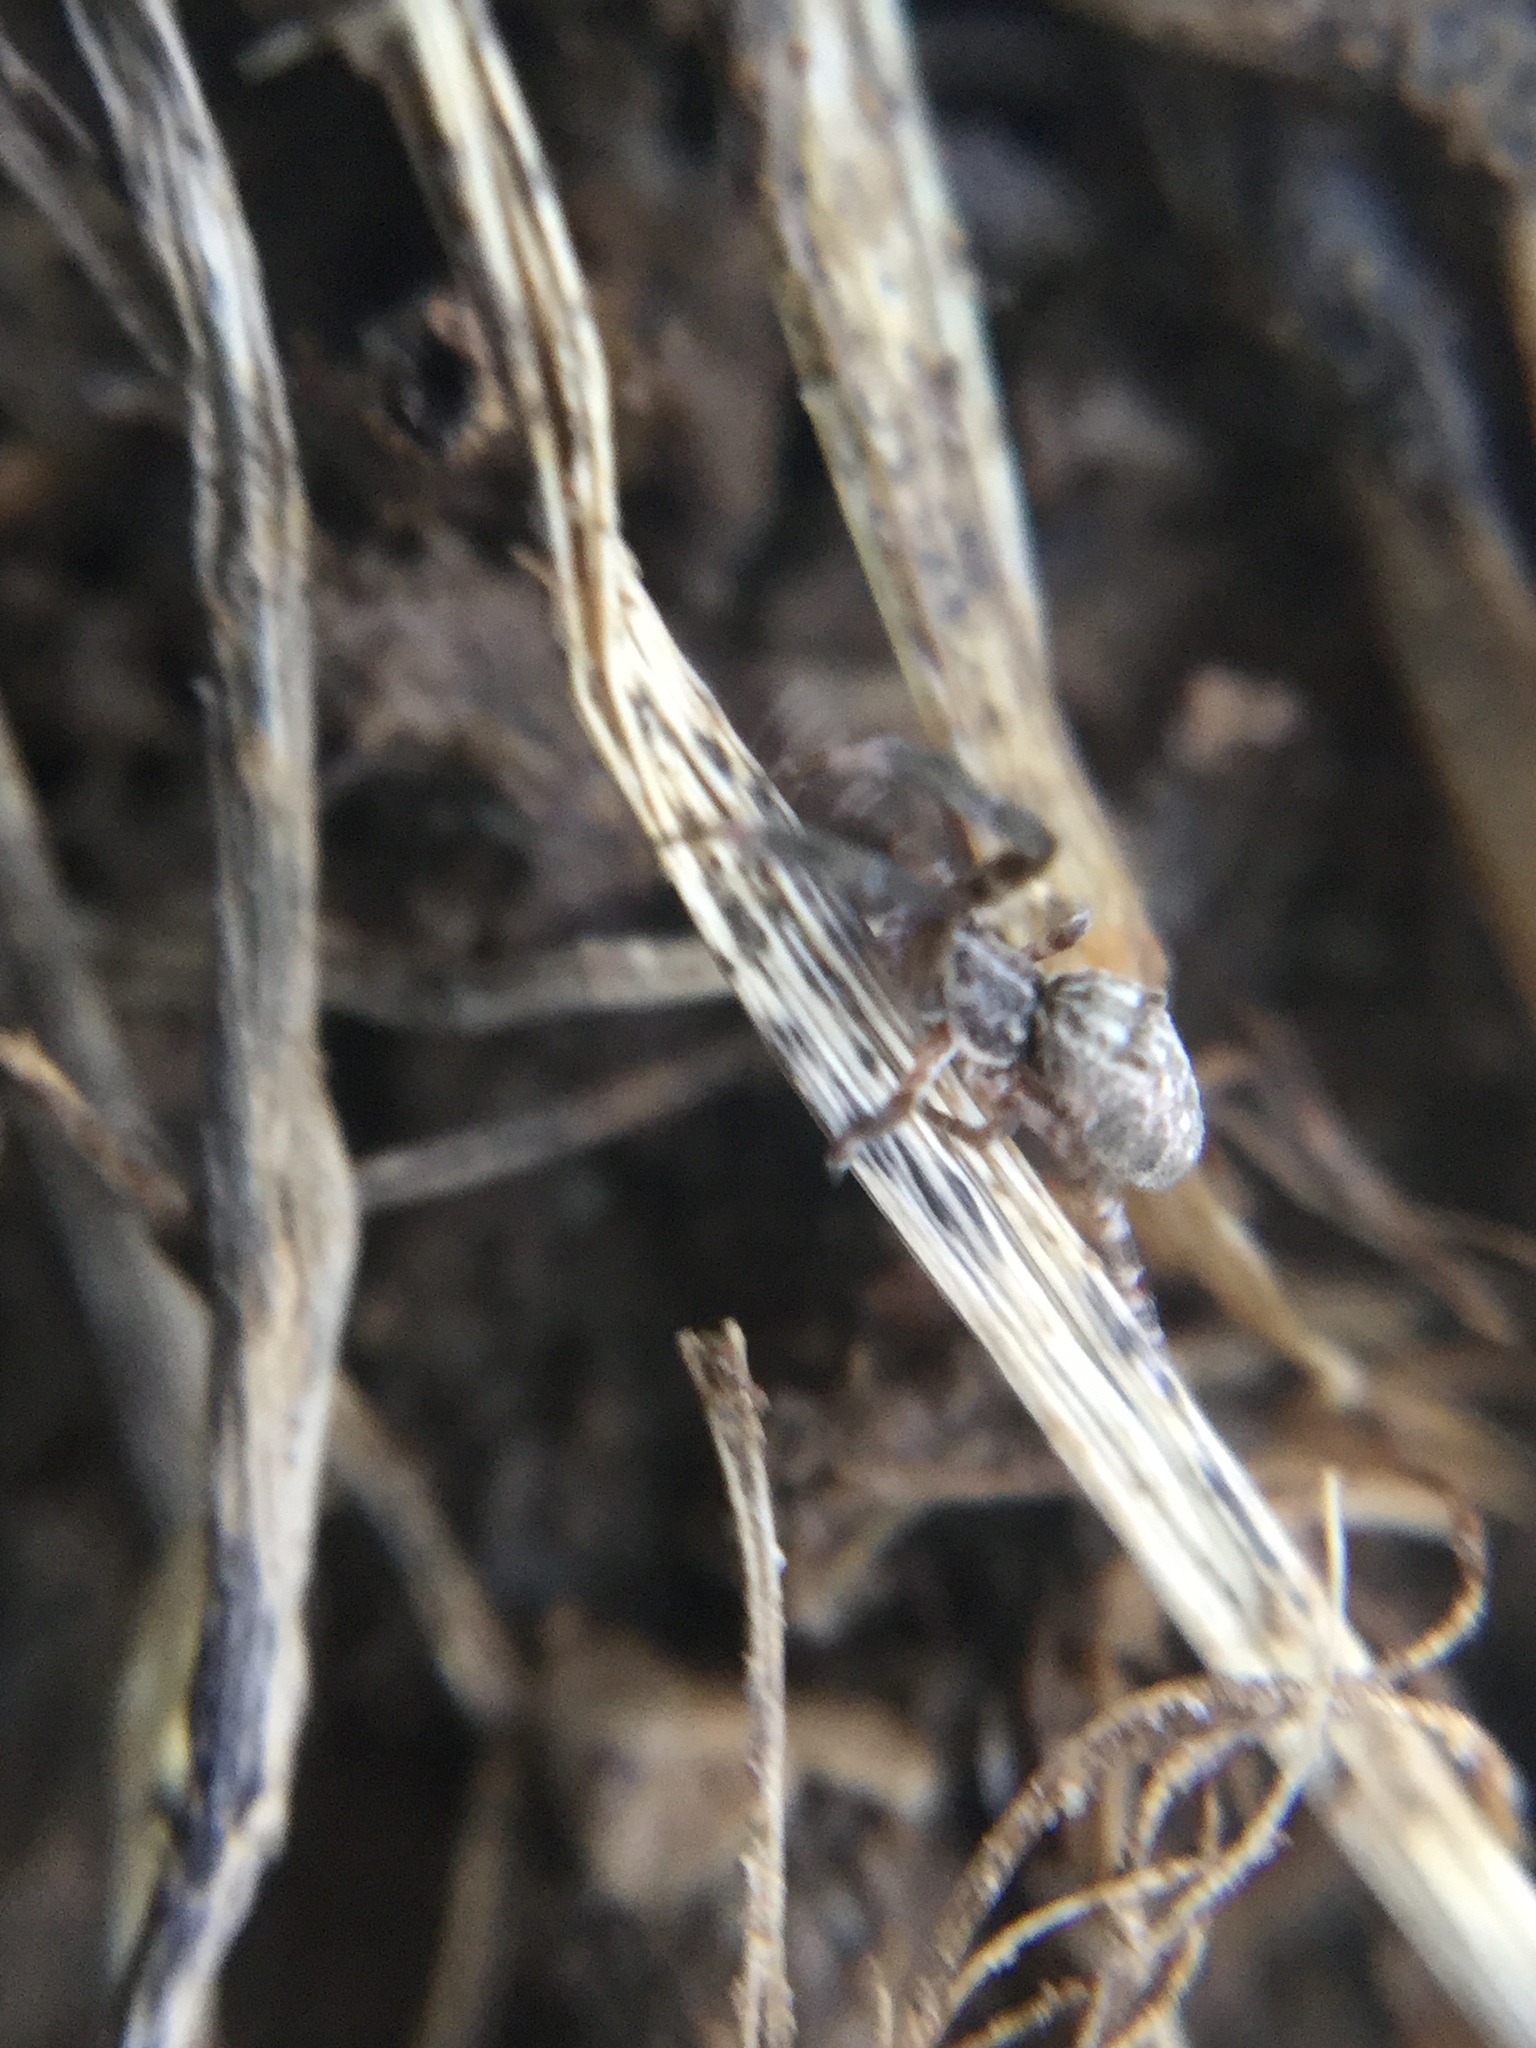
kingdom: Animalia
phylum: Arthropoda
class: Arachnida
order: Araneae
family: Uloboridae
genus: Uloborus
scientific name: Uloborus glomosus
